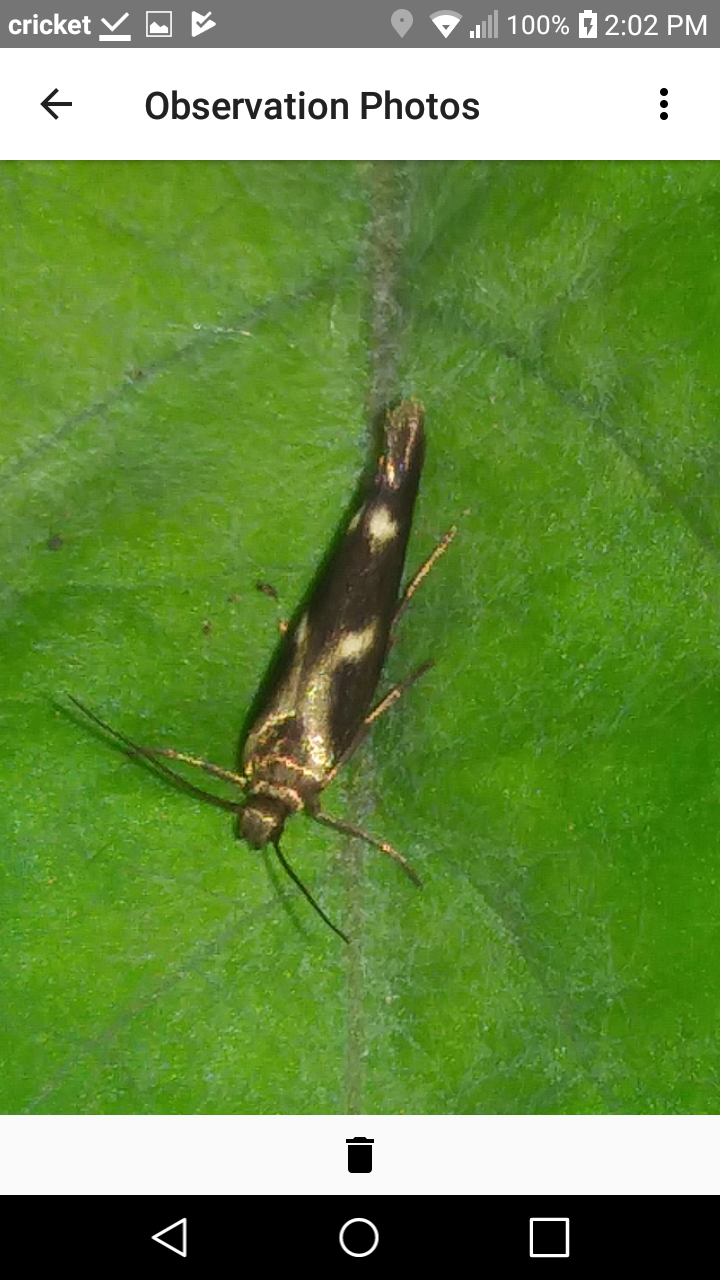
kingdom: Animalia
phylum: Arthropoda
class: Insecta
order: Lepidoptera
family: Scythrididae
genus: Landryia
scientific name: Landryia impositella
